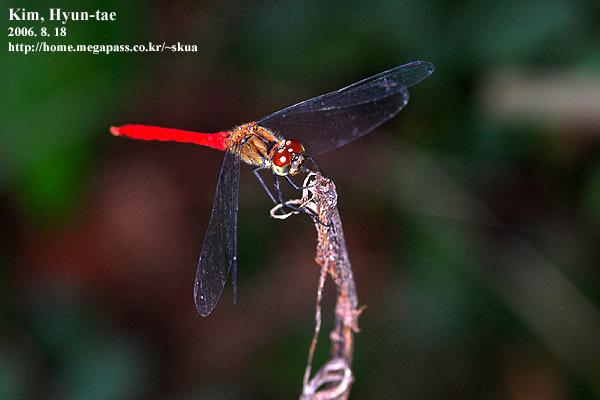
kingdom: Animalia
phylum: Arthropoda
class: Insecta
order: Odonata
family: Libellulidae
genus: Sympetrum
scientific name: Sympetrum eroticum
